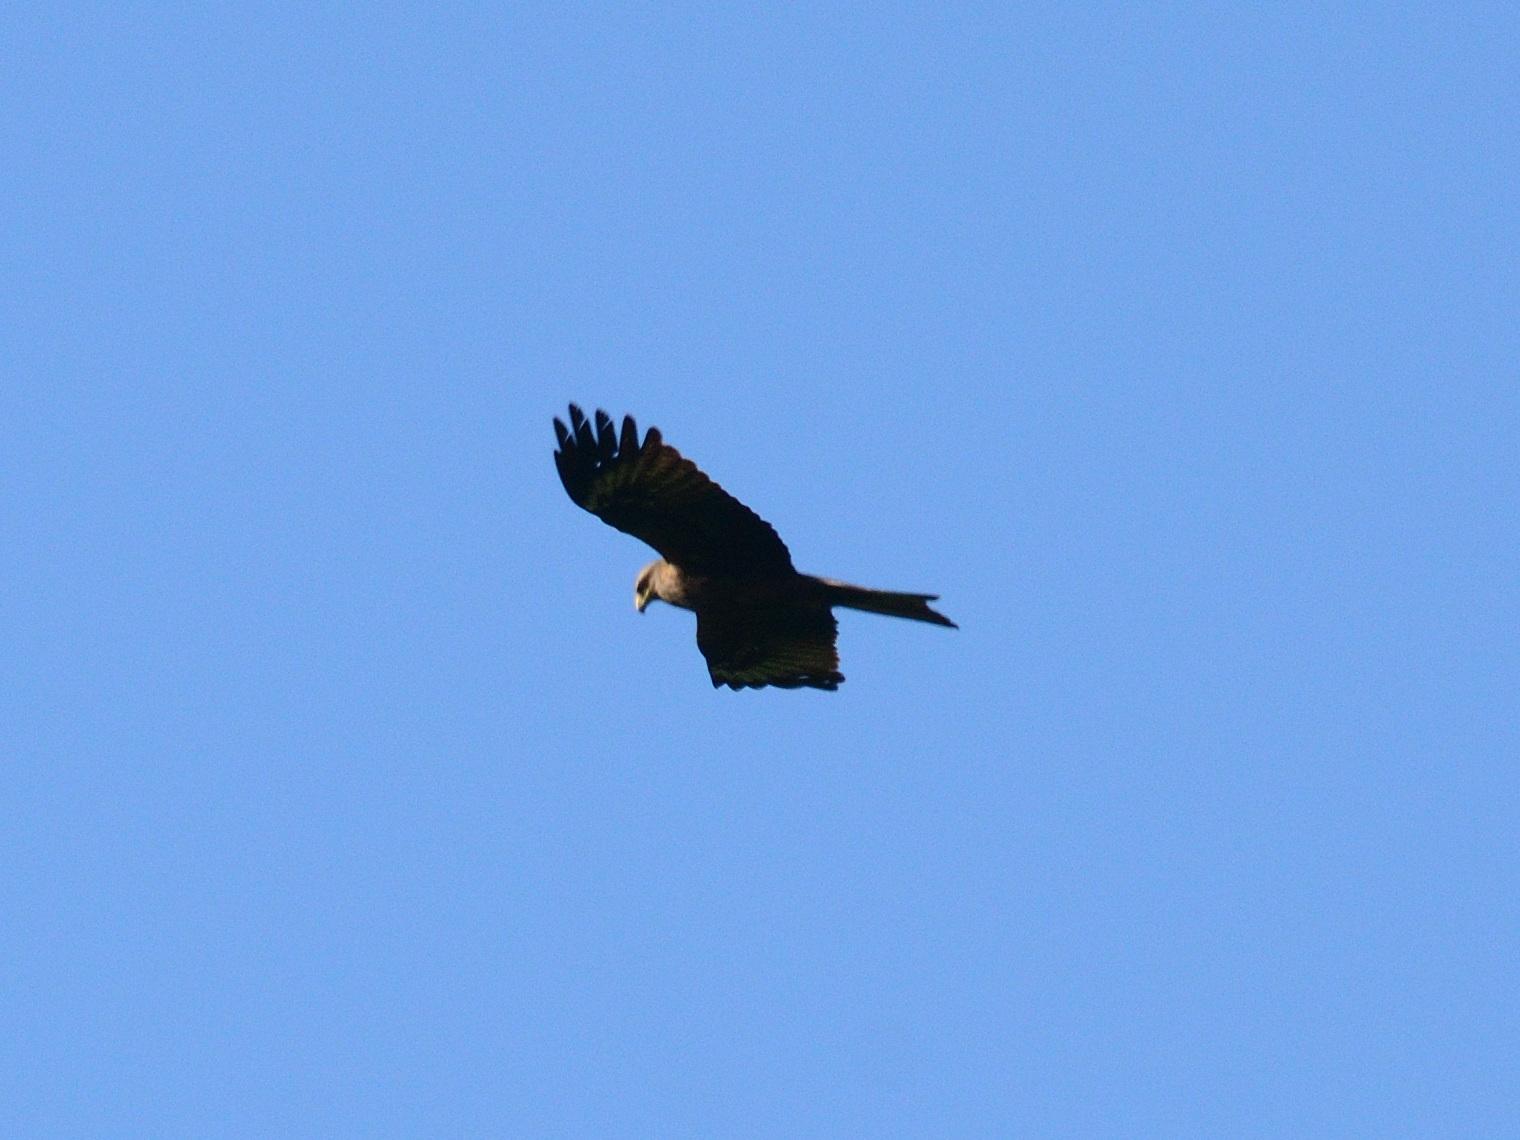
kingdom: Animalia
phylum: Chordata
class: Aves
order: Accipitriformes
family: Accipitridae
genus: Milvus
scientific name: Milvus migrans
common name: Black kite
